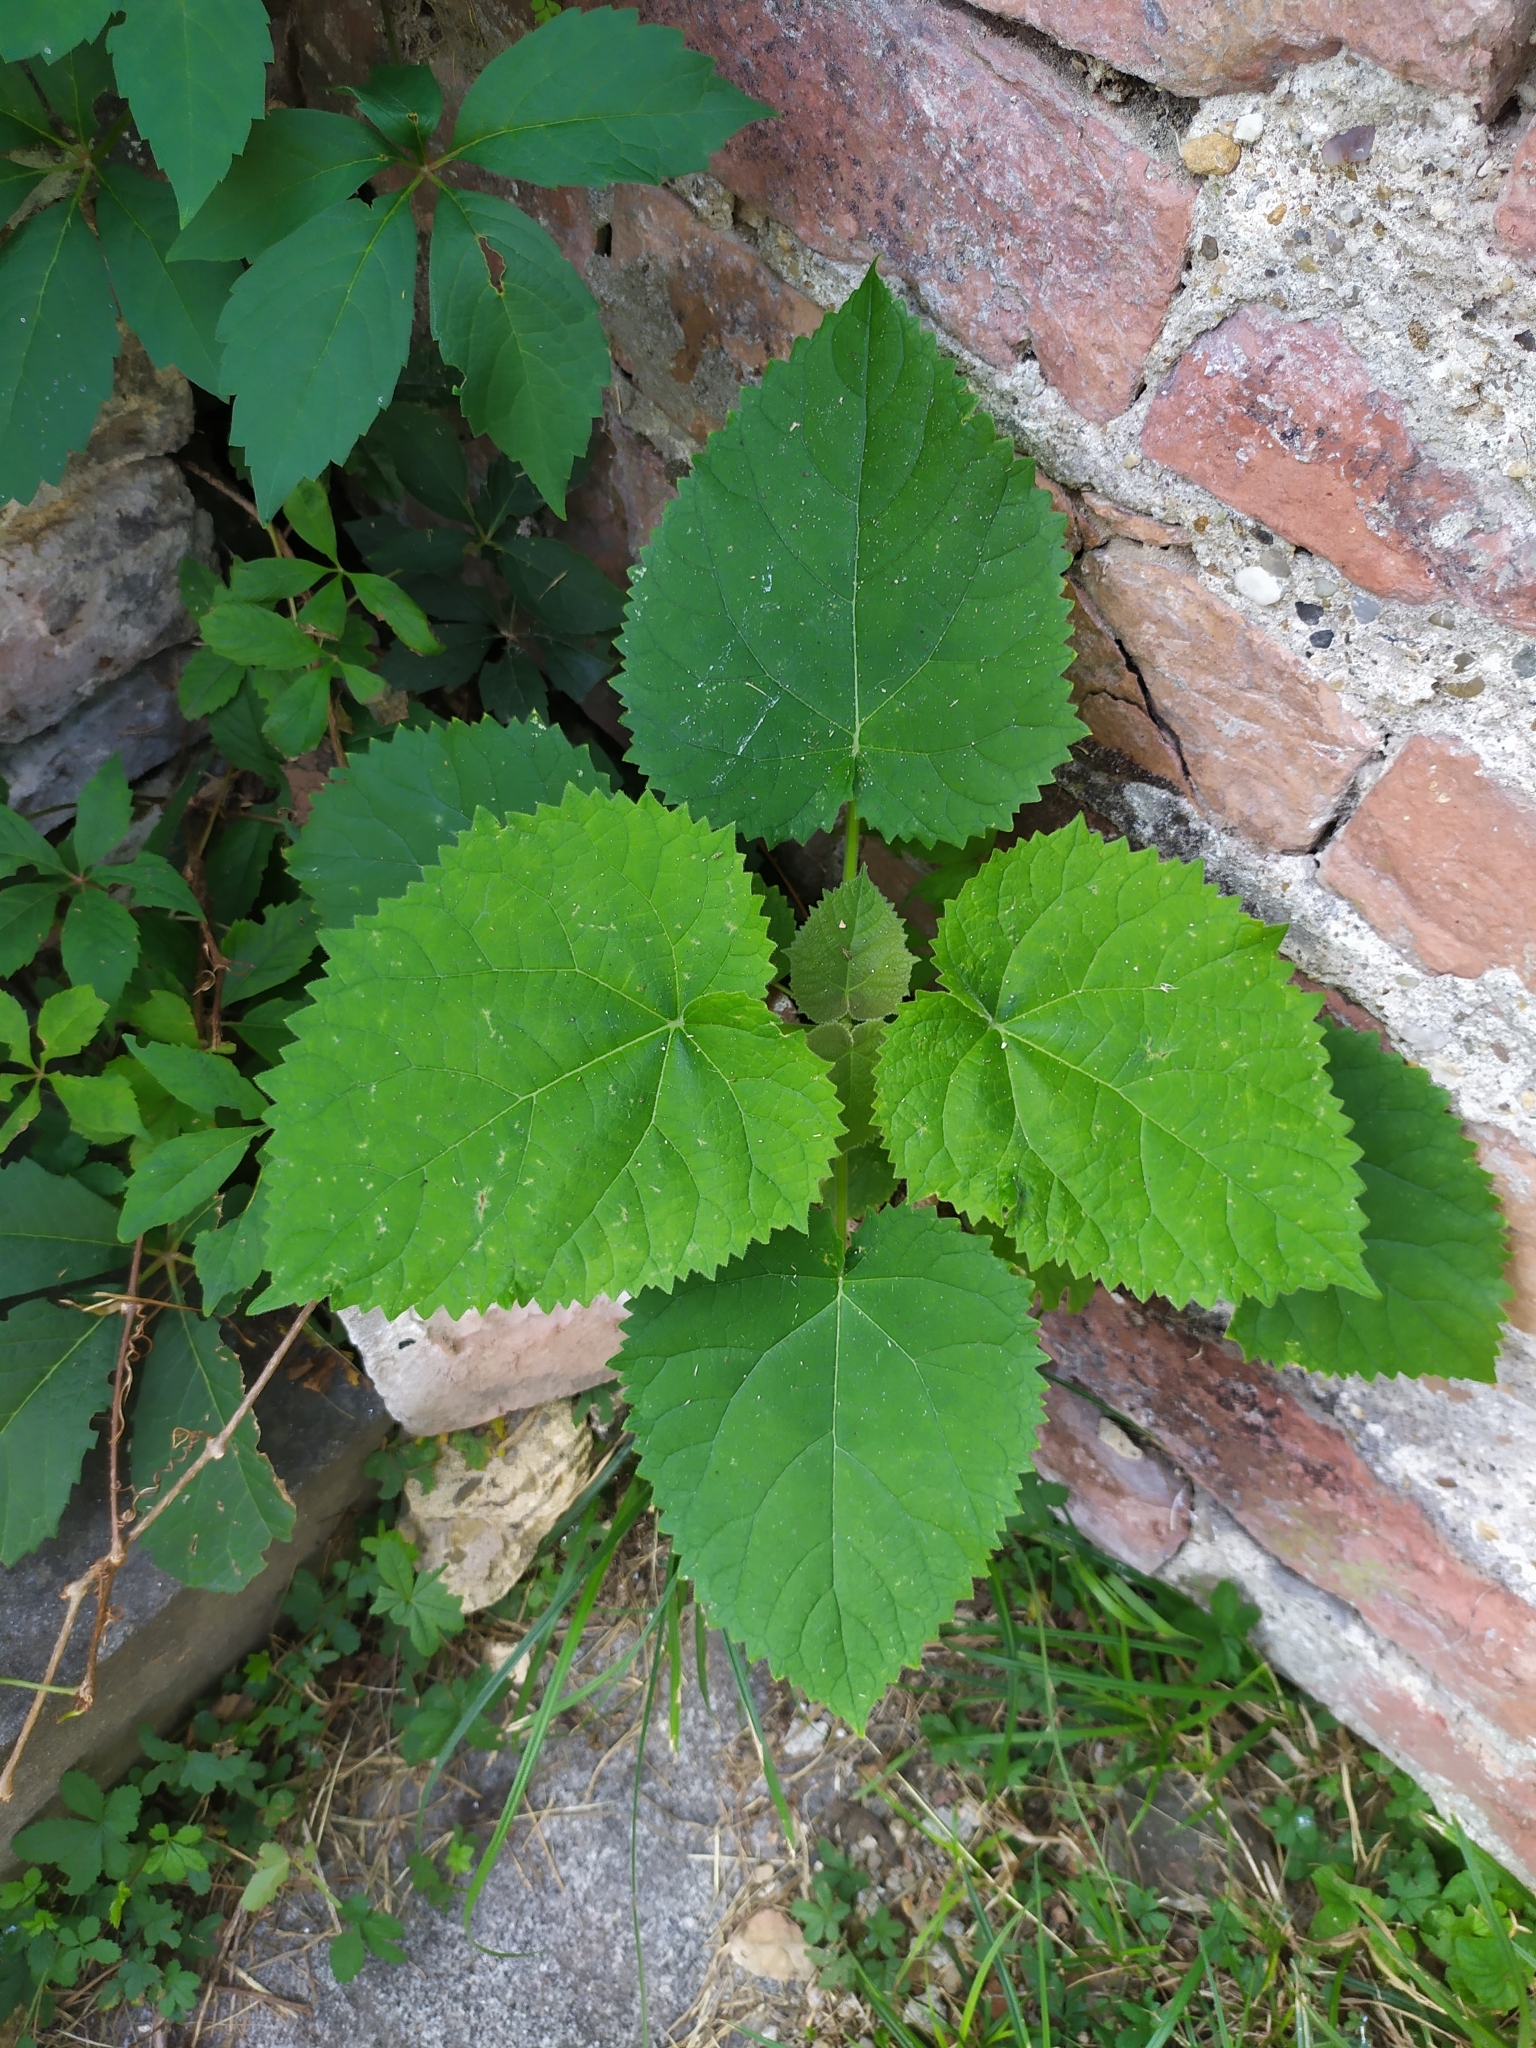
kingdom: Plantae
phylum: Tracheophyta
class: Magnoliopsida
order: Lamiales
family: Paulowniaceae
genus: Paulownia
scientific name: Paulownia tomentosa
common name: Foxglove-tree
